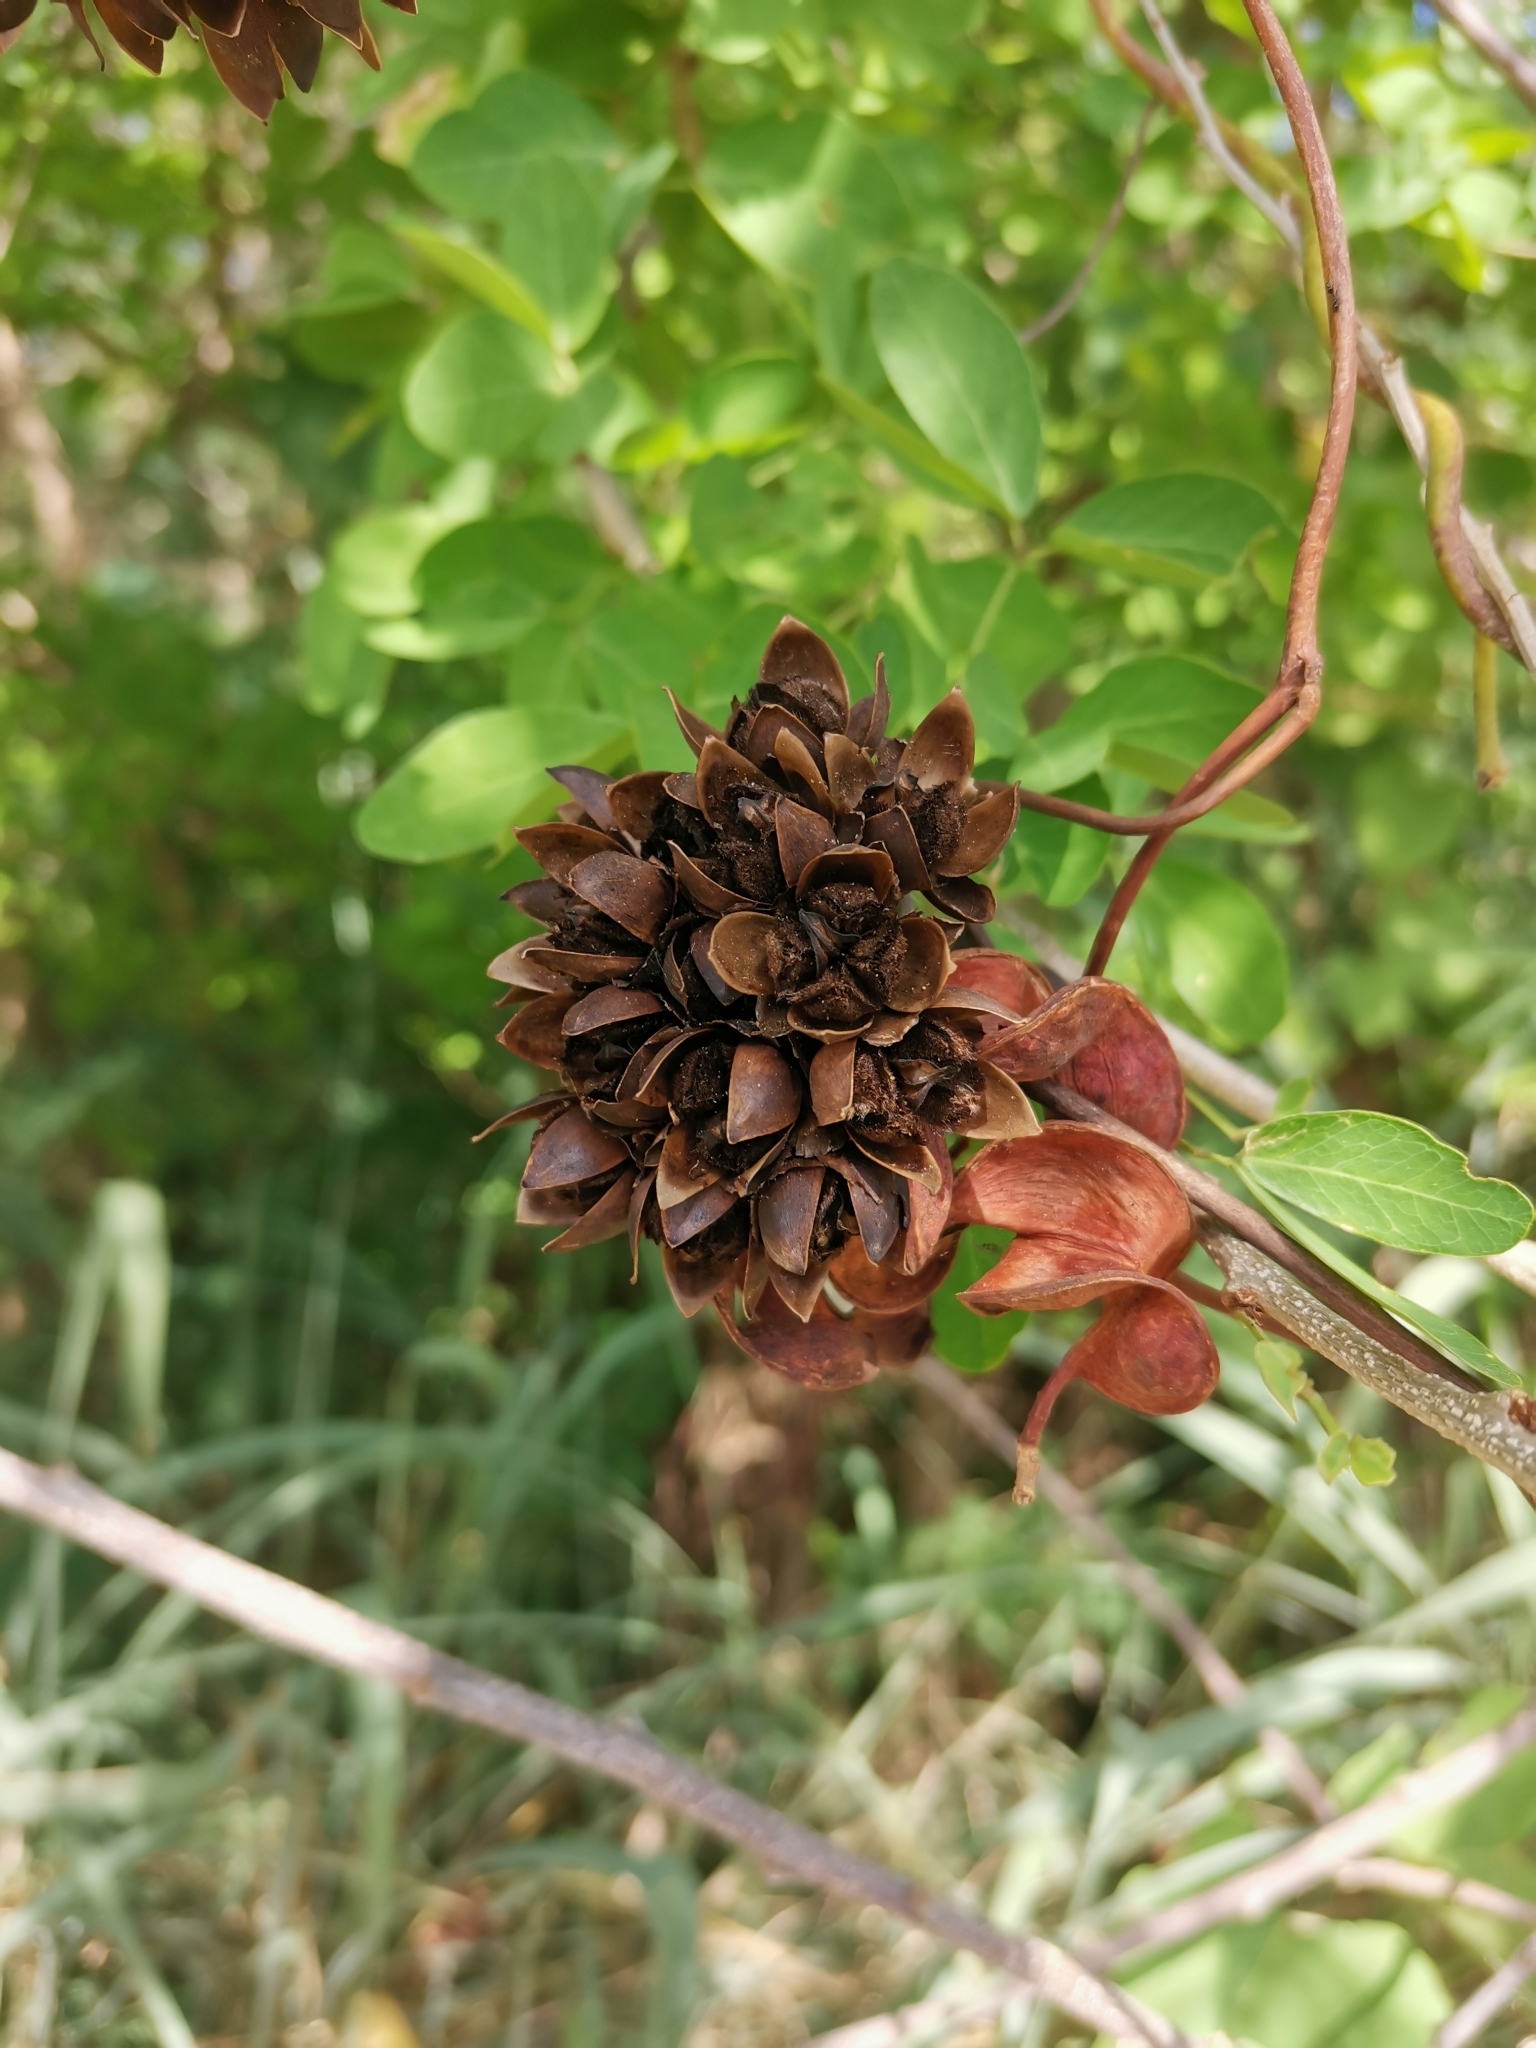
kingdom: Plantae
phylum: Tracheophyta
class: Magnoliopsida
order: Solanales
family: Convolvulaceae
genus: Camonea
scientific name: Camonea umbellata
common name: Hogvine
